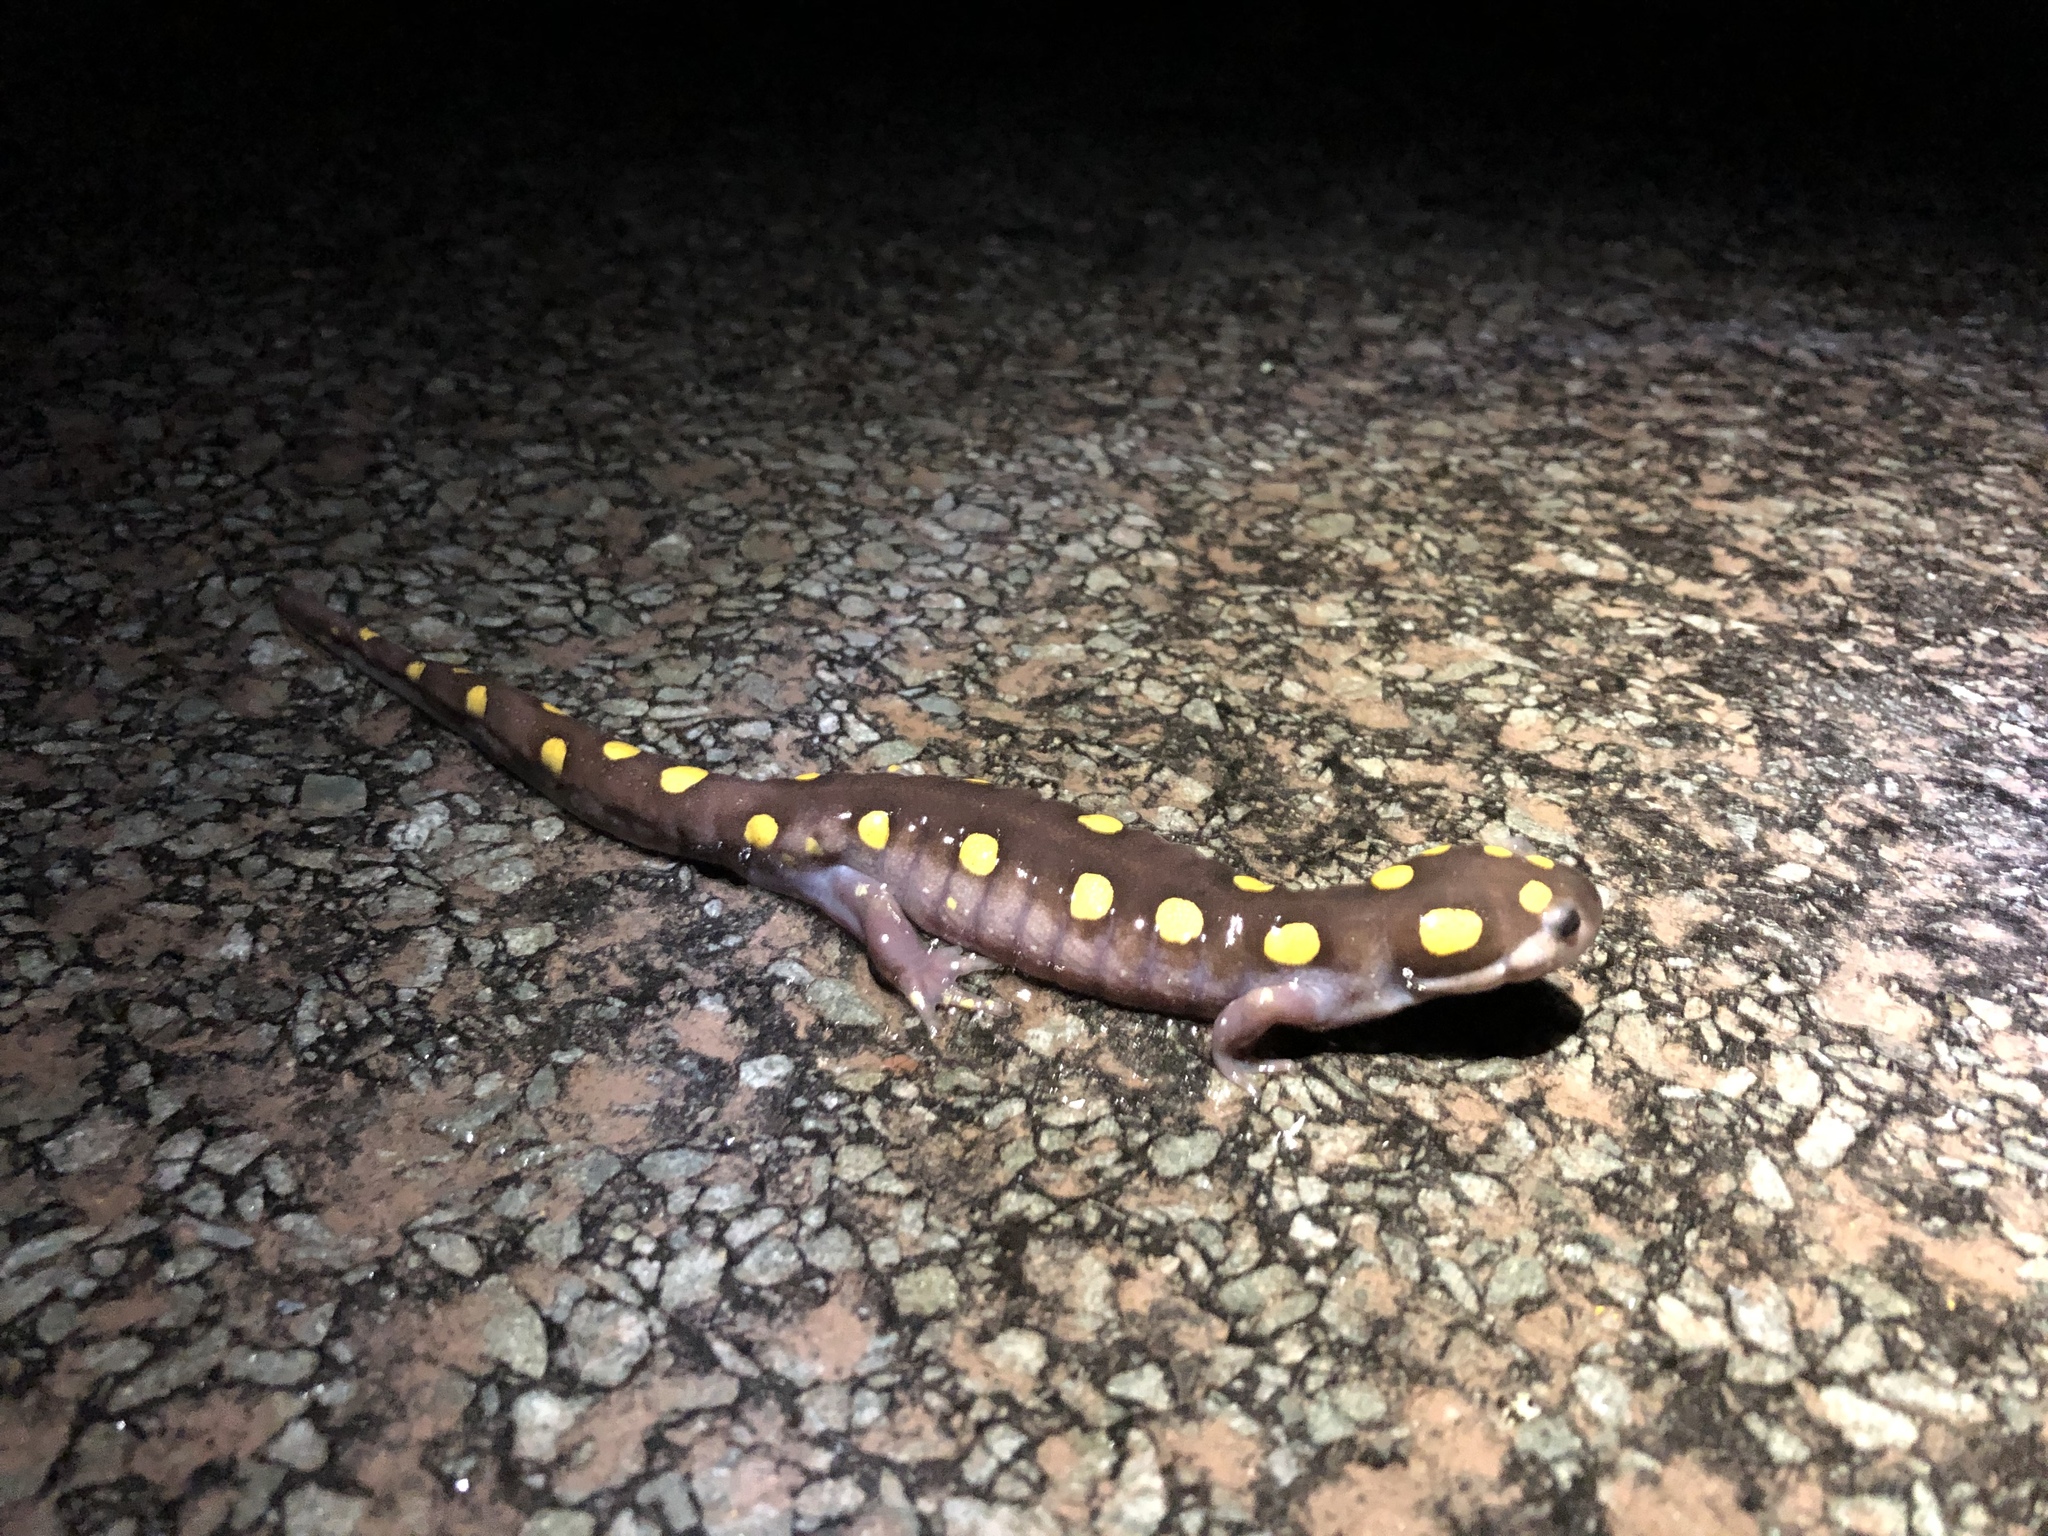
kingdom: Animalia
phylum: Chordata
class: Amphibia
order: Caudata
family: Ambystomatidae
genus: Ambystoma
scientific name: Ambystoma maculatum
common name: Spotted salamander
